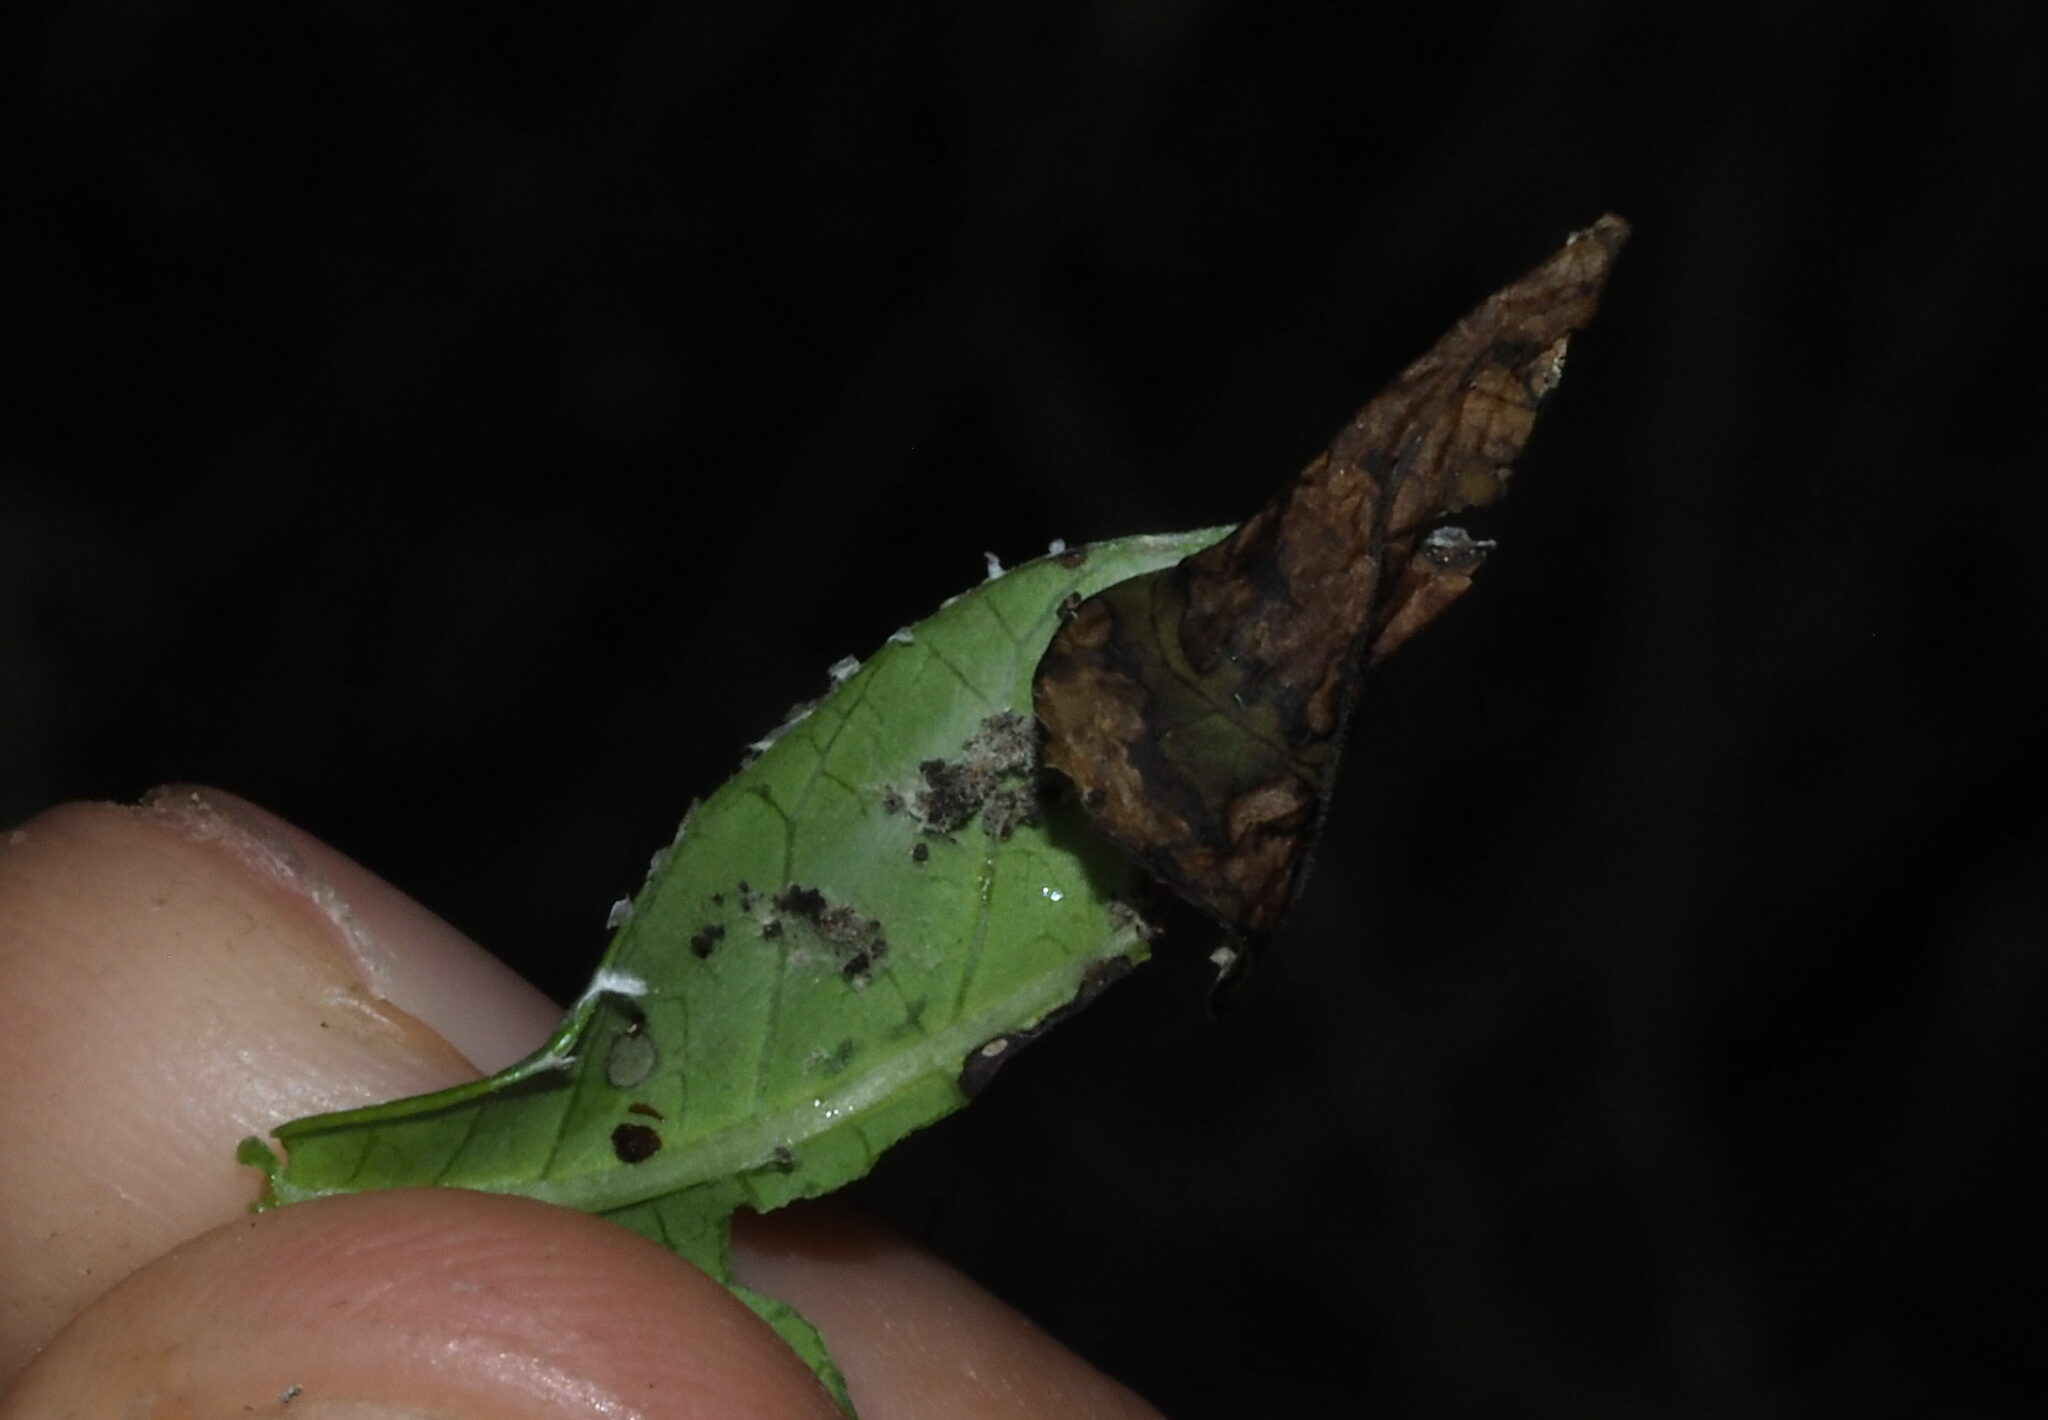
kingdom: Animalia
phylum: Arthropoda
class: Insecta
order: Lepidoptera
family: Tortricidae
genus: Episimus
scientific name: Episimus unguiculus
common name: Brazilian peppertree leaflet rolling moth
